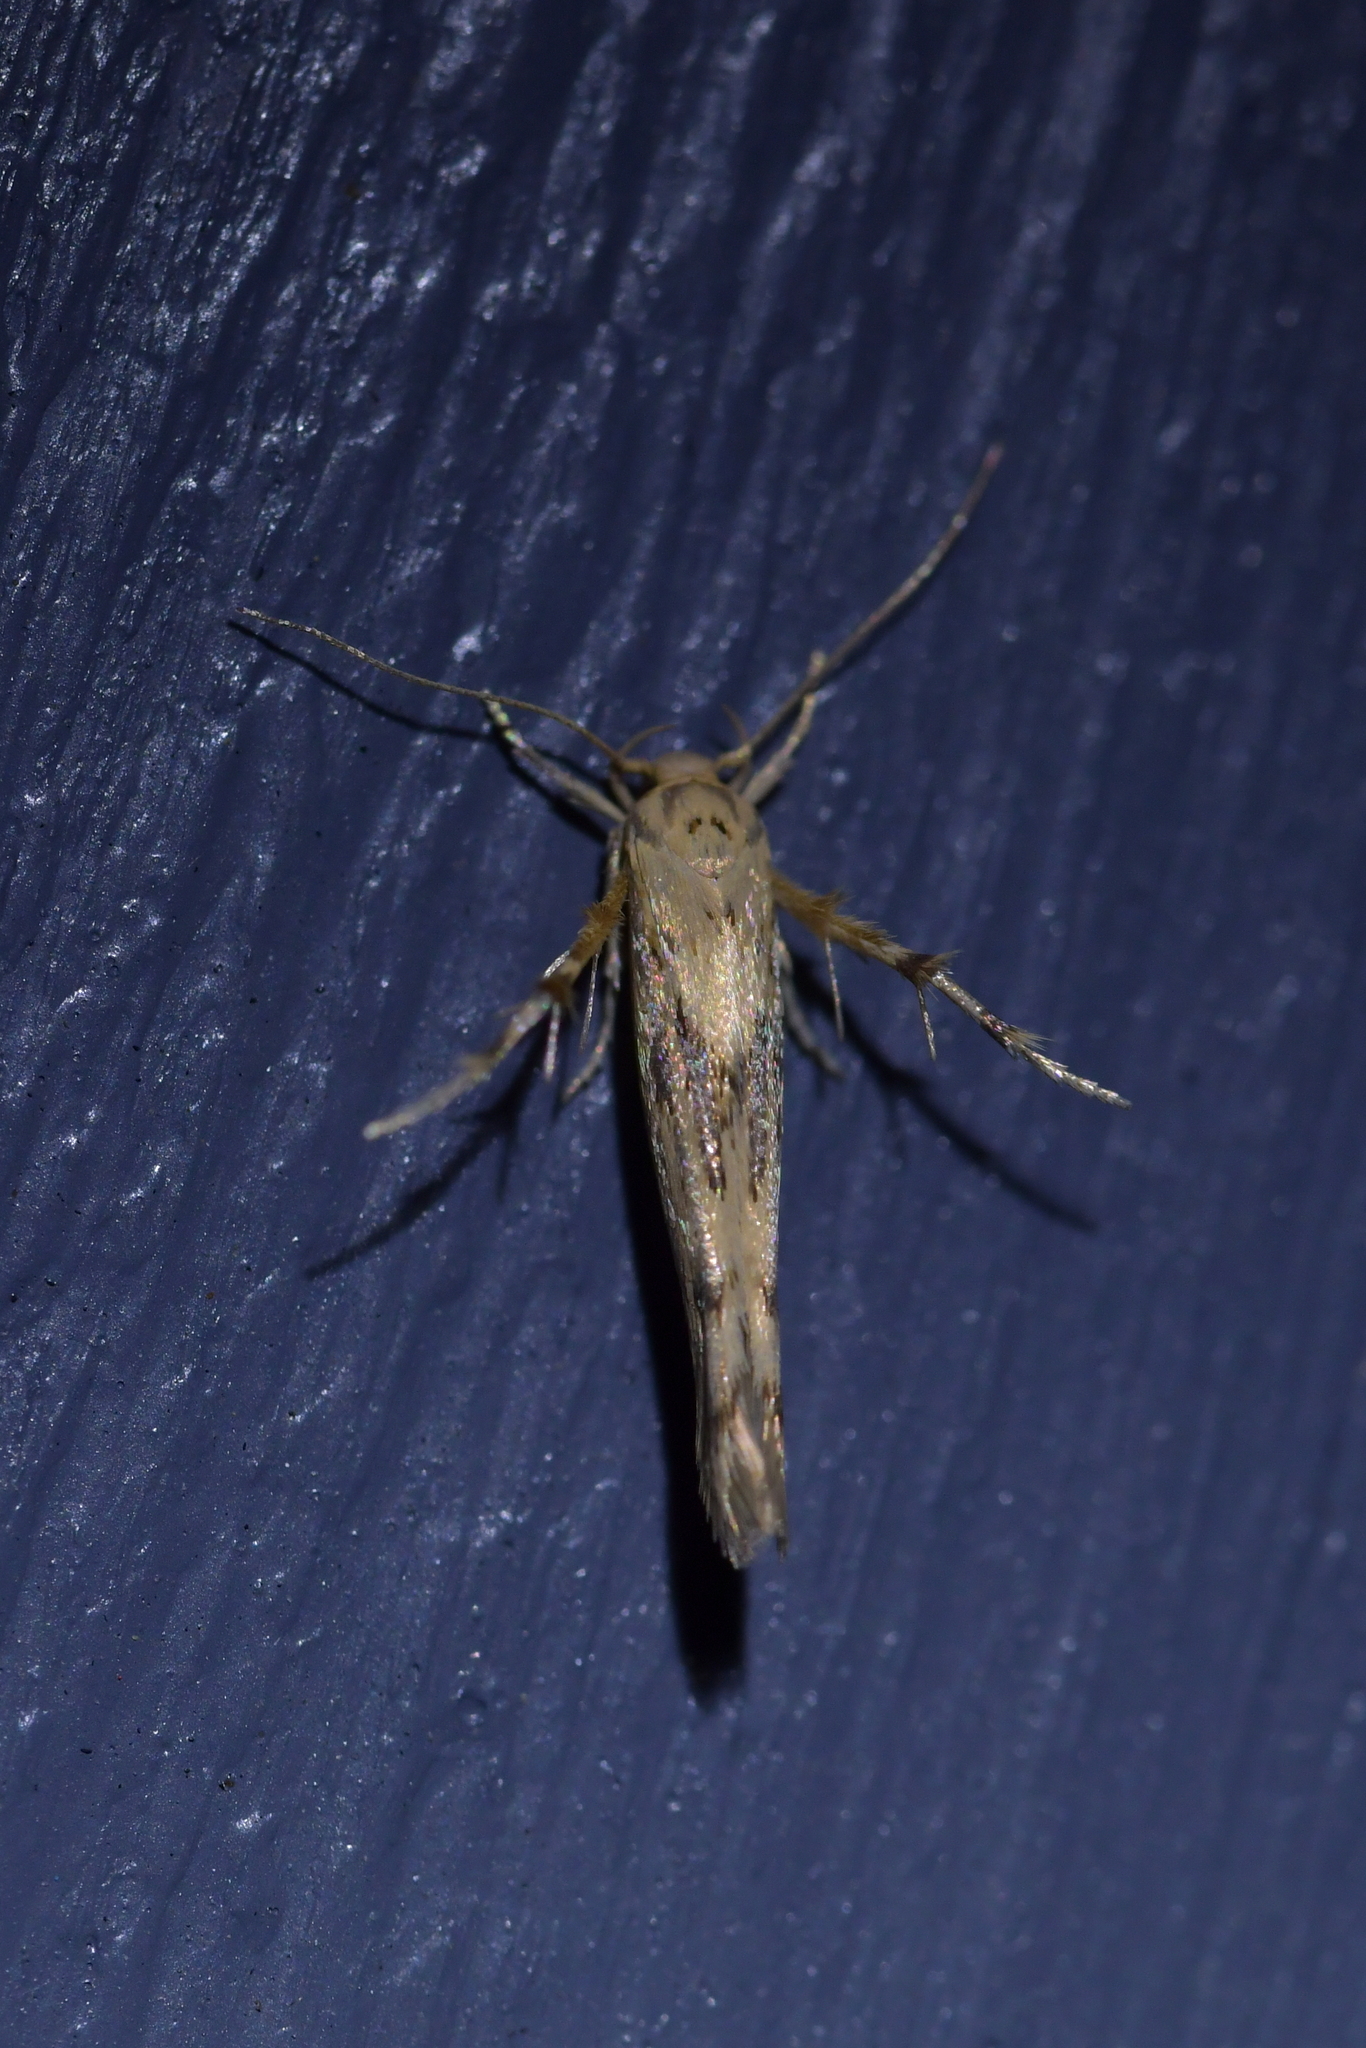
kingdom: Animalia
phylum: Arthropoda
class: Insecta
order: Lepidoptera
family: Stathmopodidae
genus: Stathmopoda
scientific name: Stathmopoda plumbiflua
